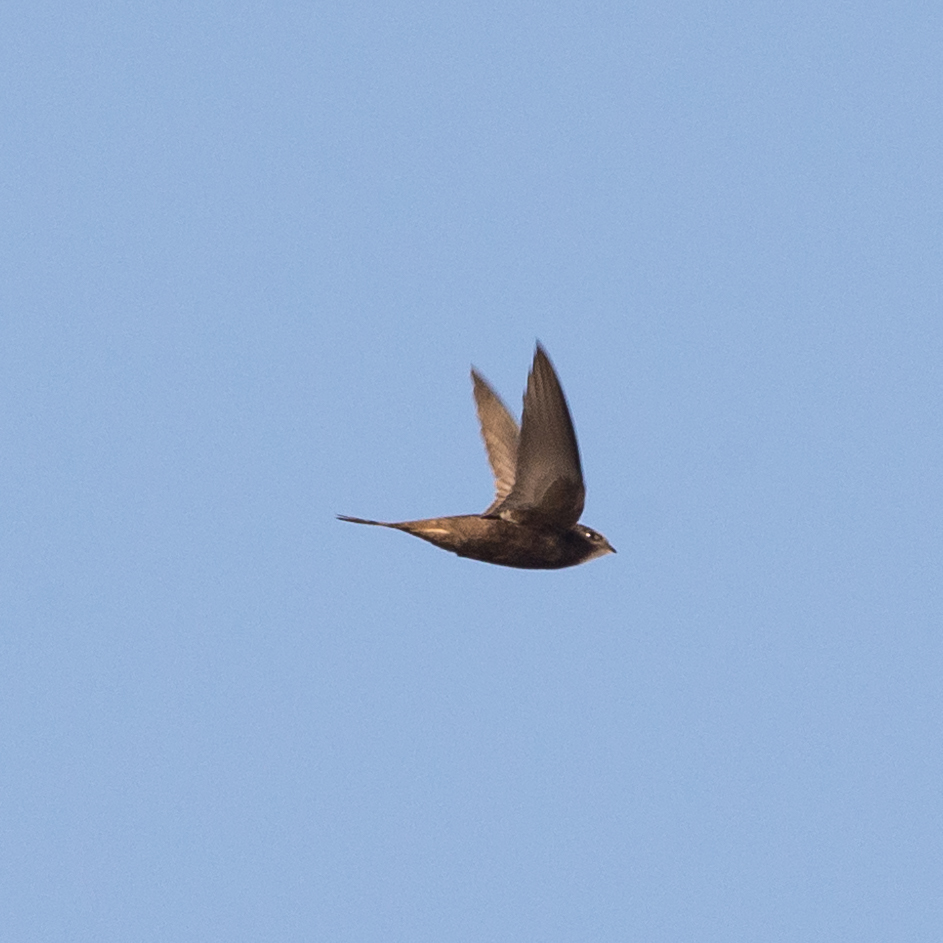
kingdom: Animalia
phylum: Chordata
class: Aves
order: Apodiformes
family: Apodidae
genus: Apus
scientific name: Apus apus
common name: Common swift
